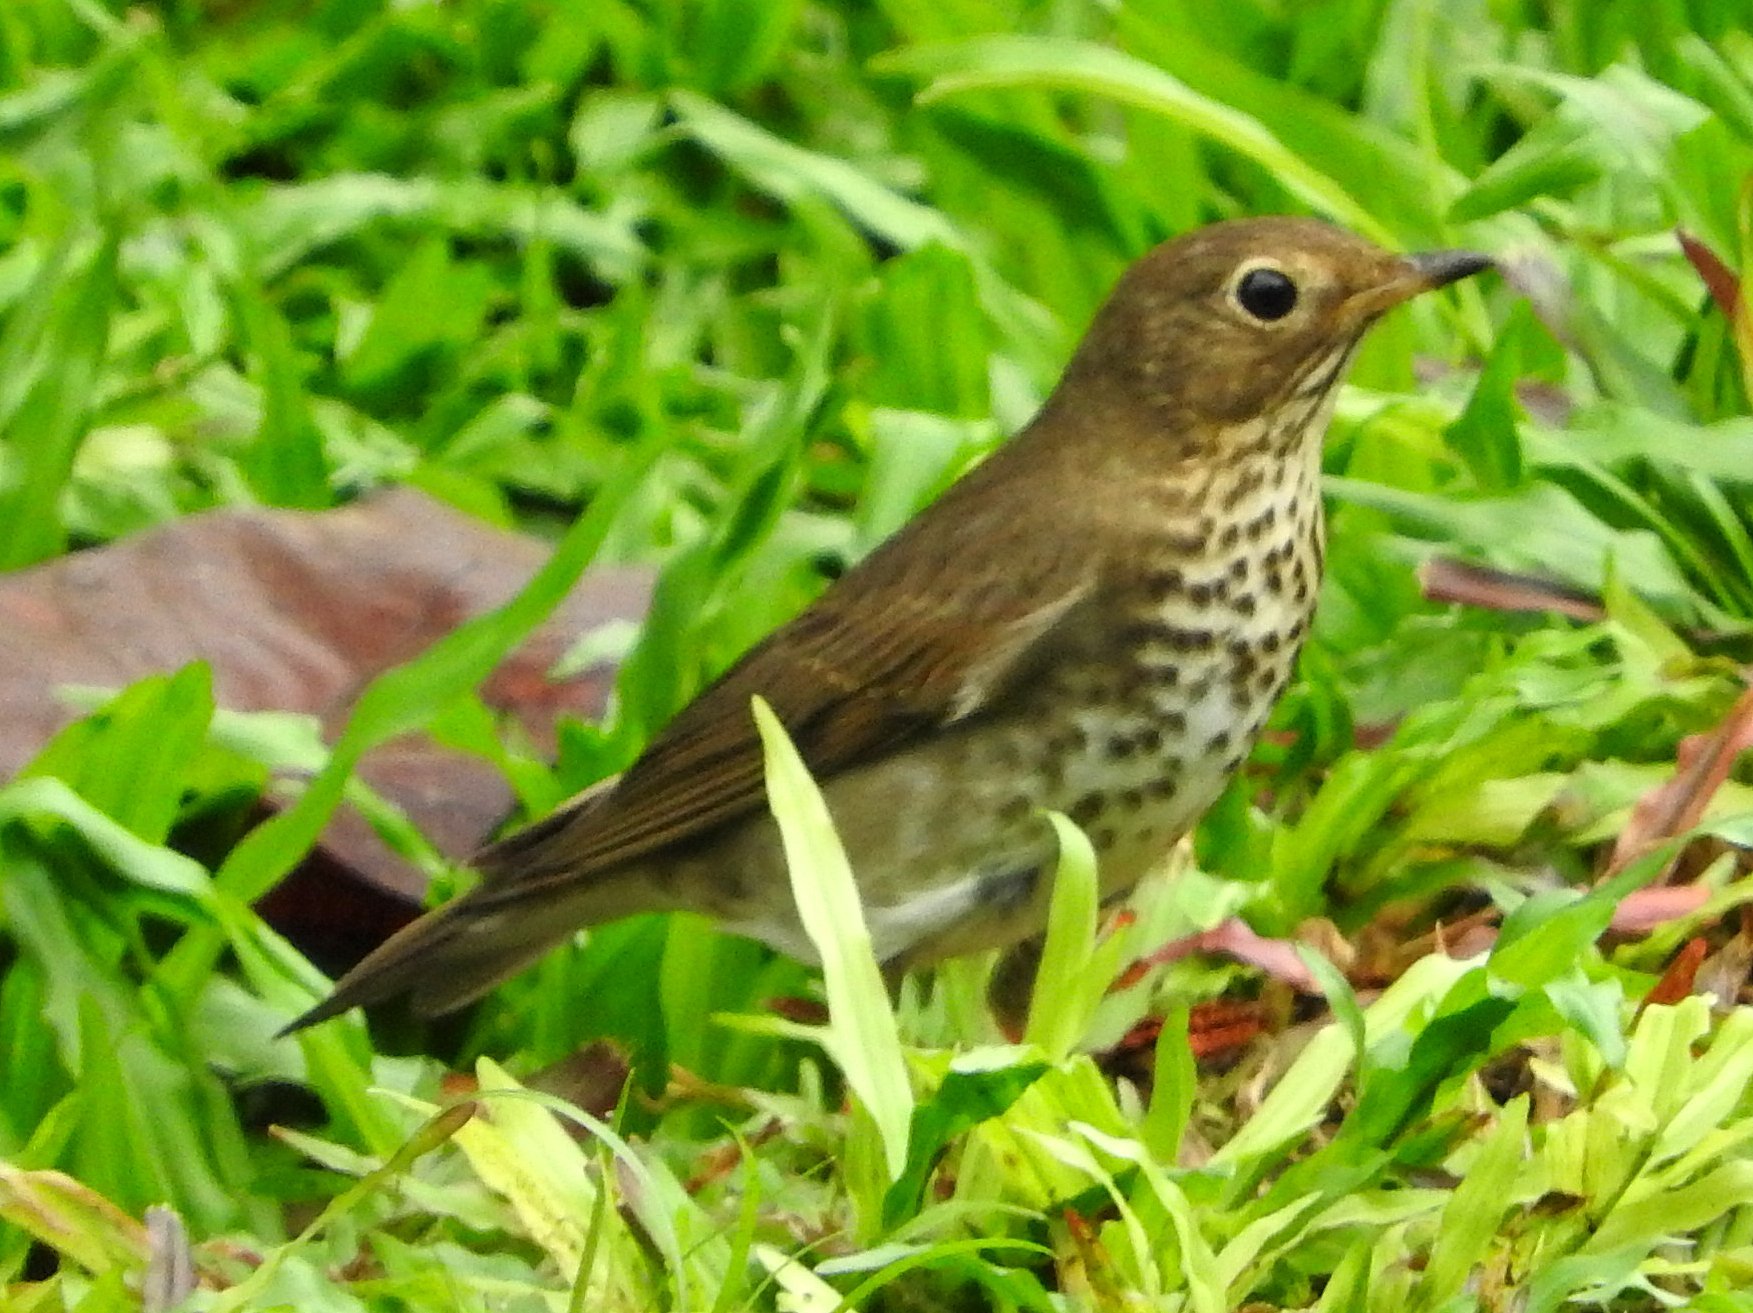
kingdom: Animalia
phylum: Chordata
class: Aves
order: Passeriformes
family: Turdidae
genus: Catharus
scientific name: Catharus ustulatus
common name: Swainson's thrush
